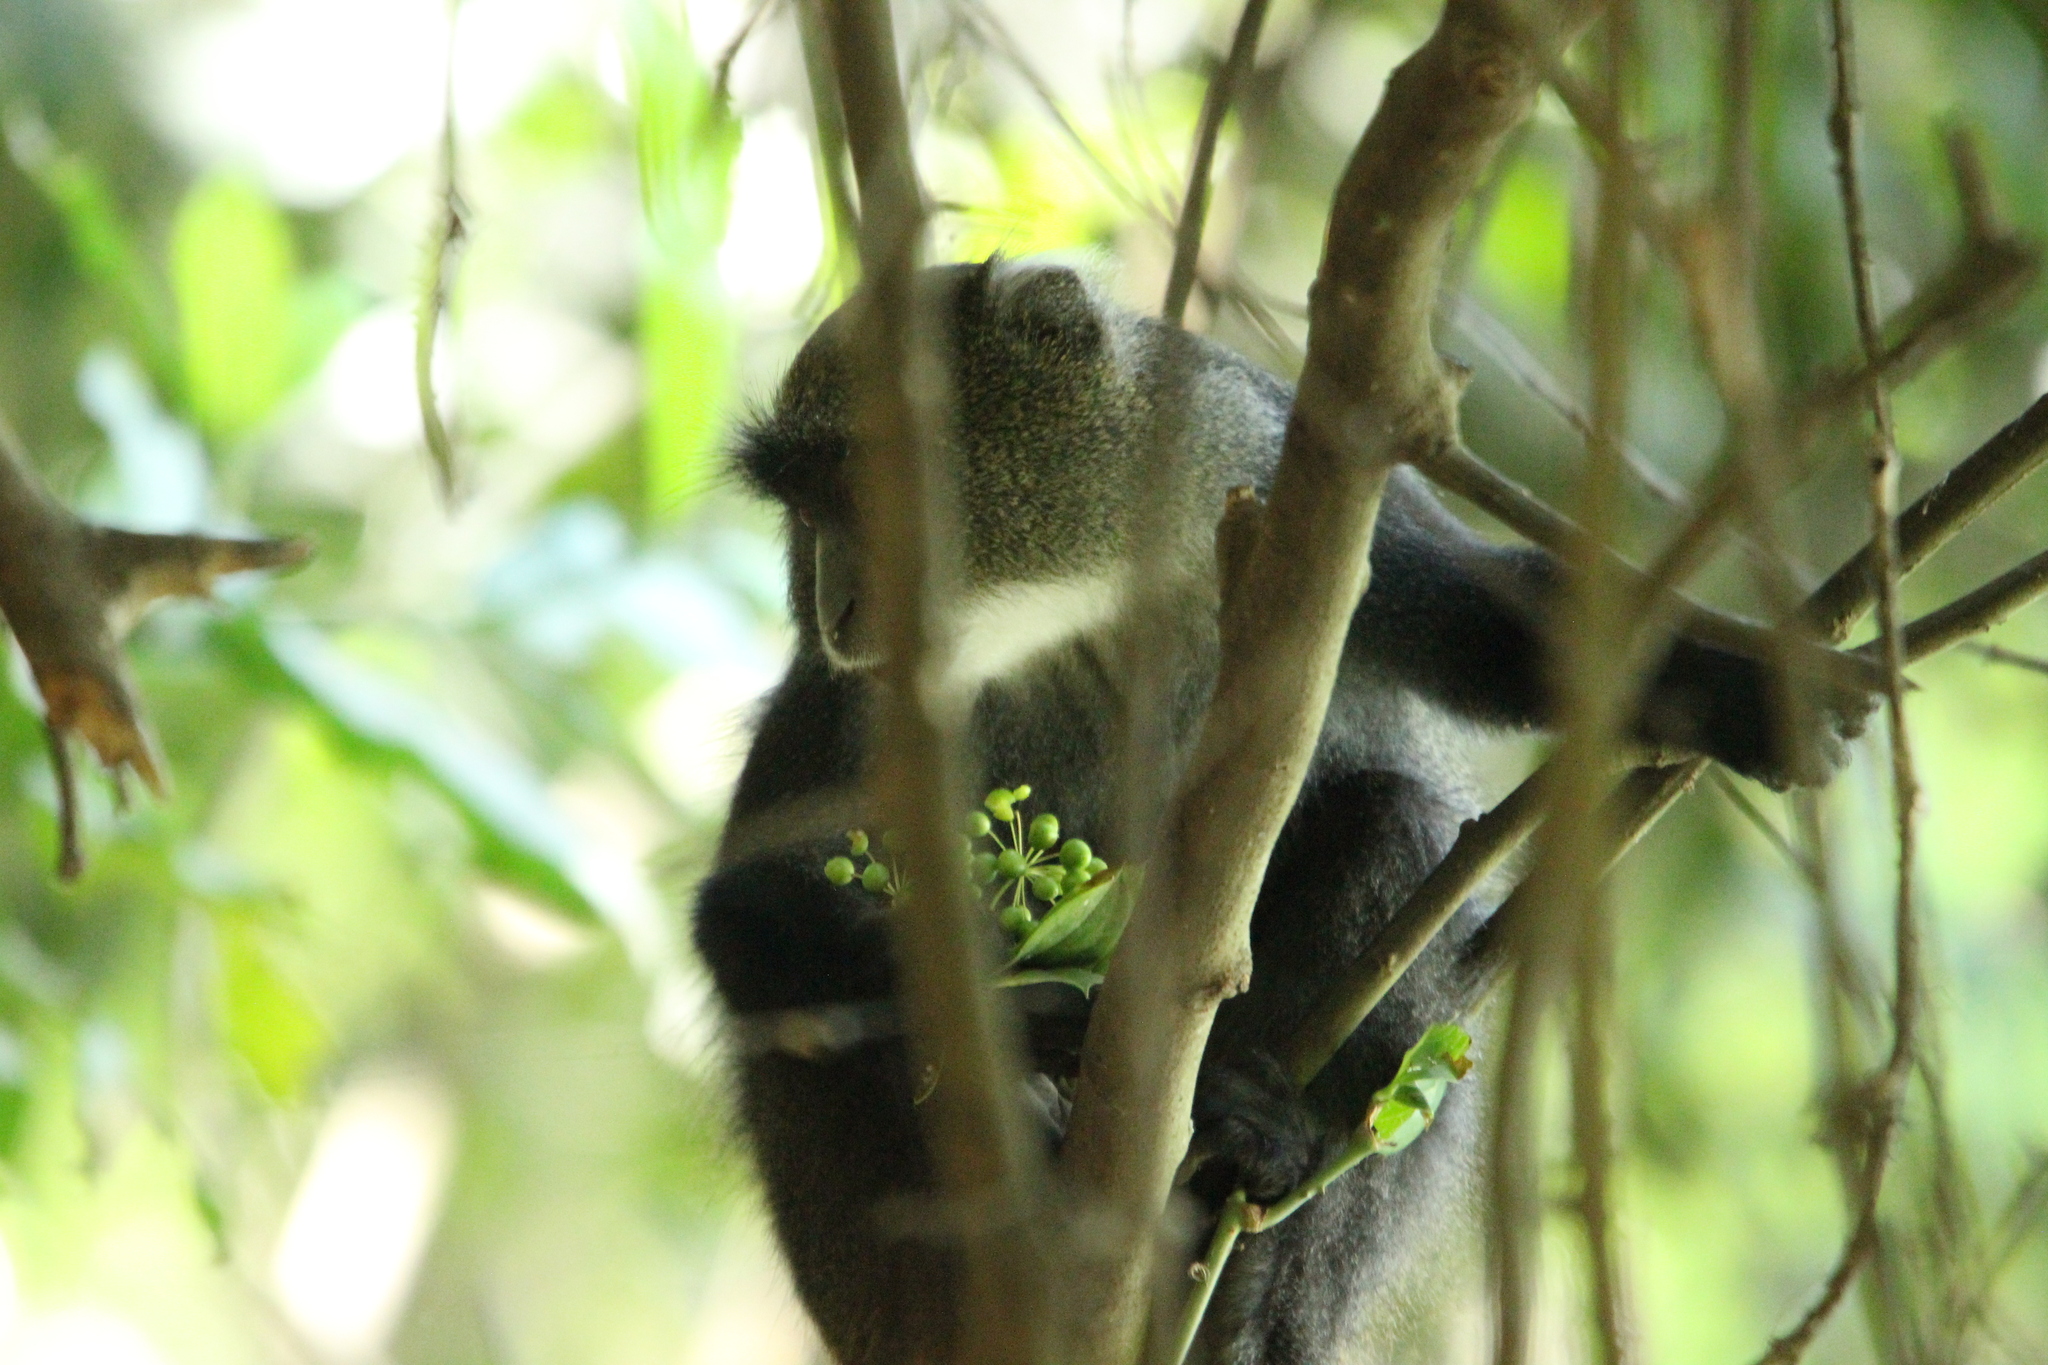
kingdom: Animalia
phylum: Chordata
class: Mammalia
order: Primates
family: Cercopithecidae
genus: Cercopithecus
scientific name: Cercopithecus mitis
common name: Blue monkey
